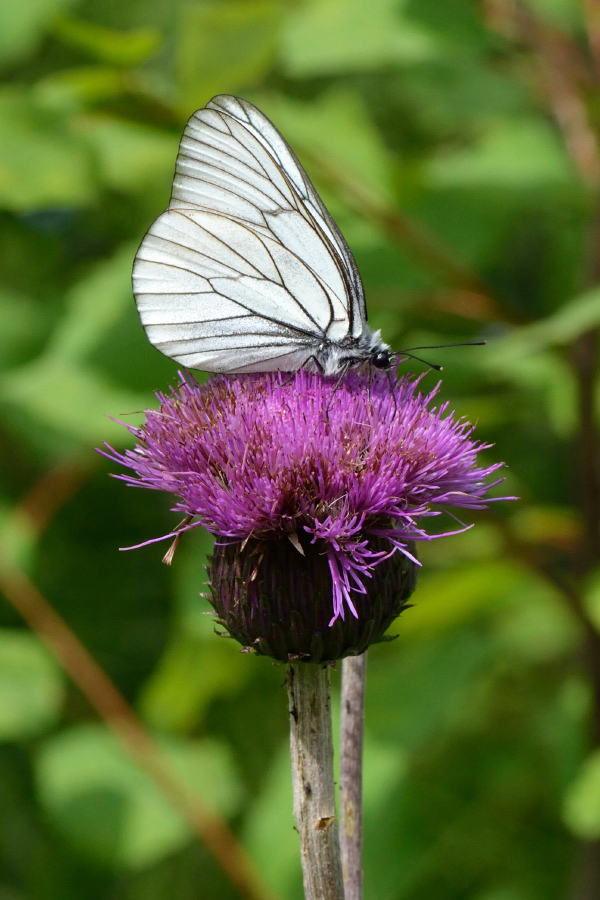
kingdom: Animalia
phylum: Arthropoda
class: Insecta
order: Lepidoptera
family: Pieridae
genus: Aporia
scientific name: Aporia crataegi
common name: Black-veined white
